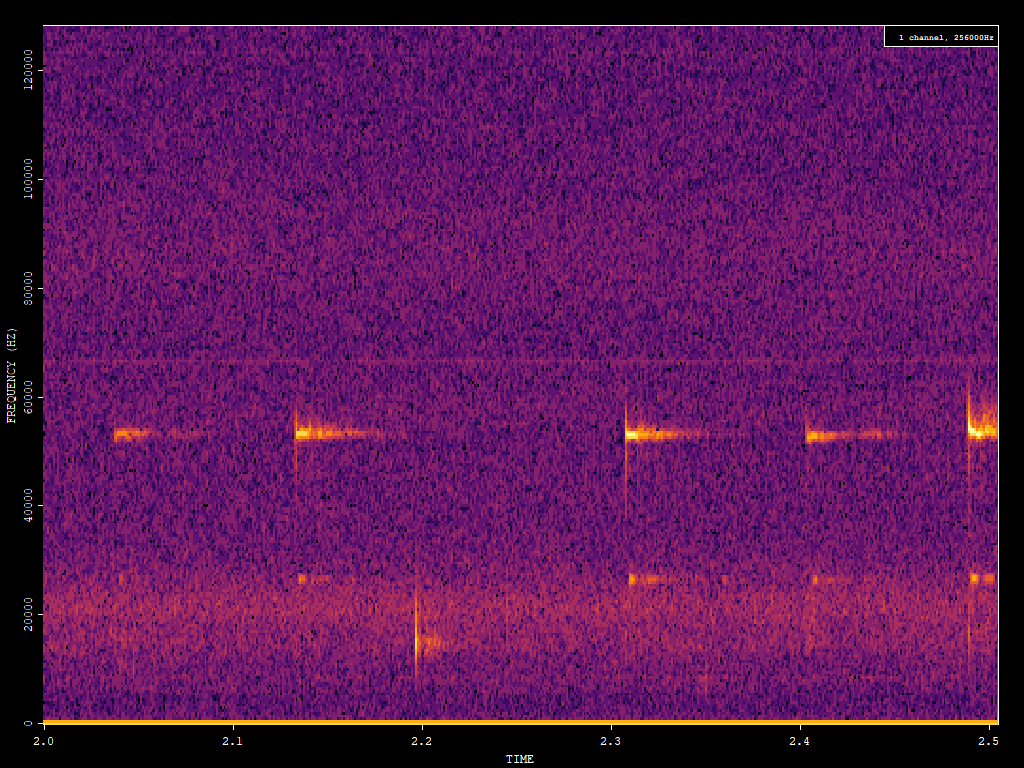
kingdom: Animalia
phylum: Chordata
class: Mammalia
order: Chiroptera
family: Vespertilionidae
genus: Pipistrellus
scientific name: Pipistrellus pygmaeus
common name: Soprano pipistrelle
